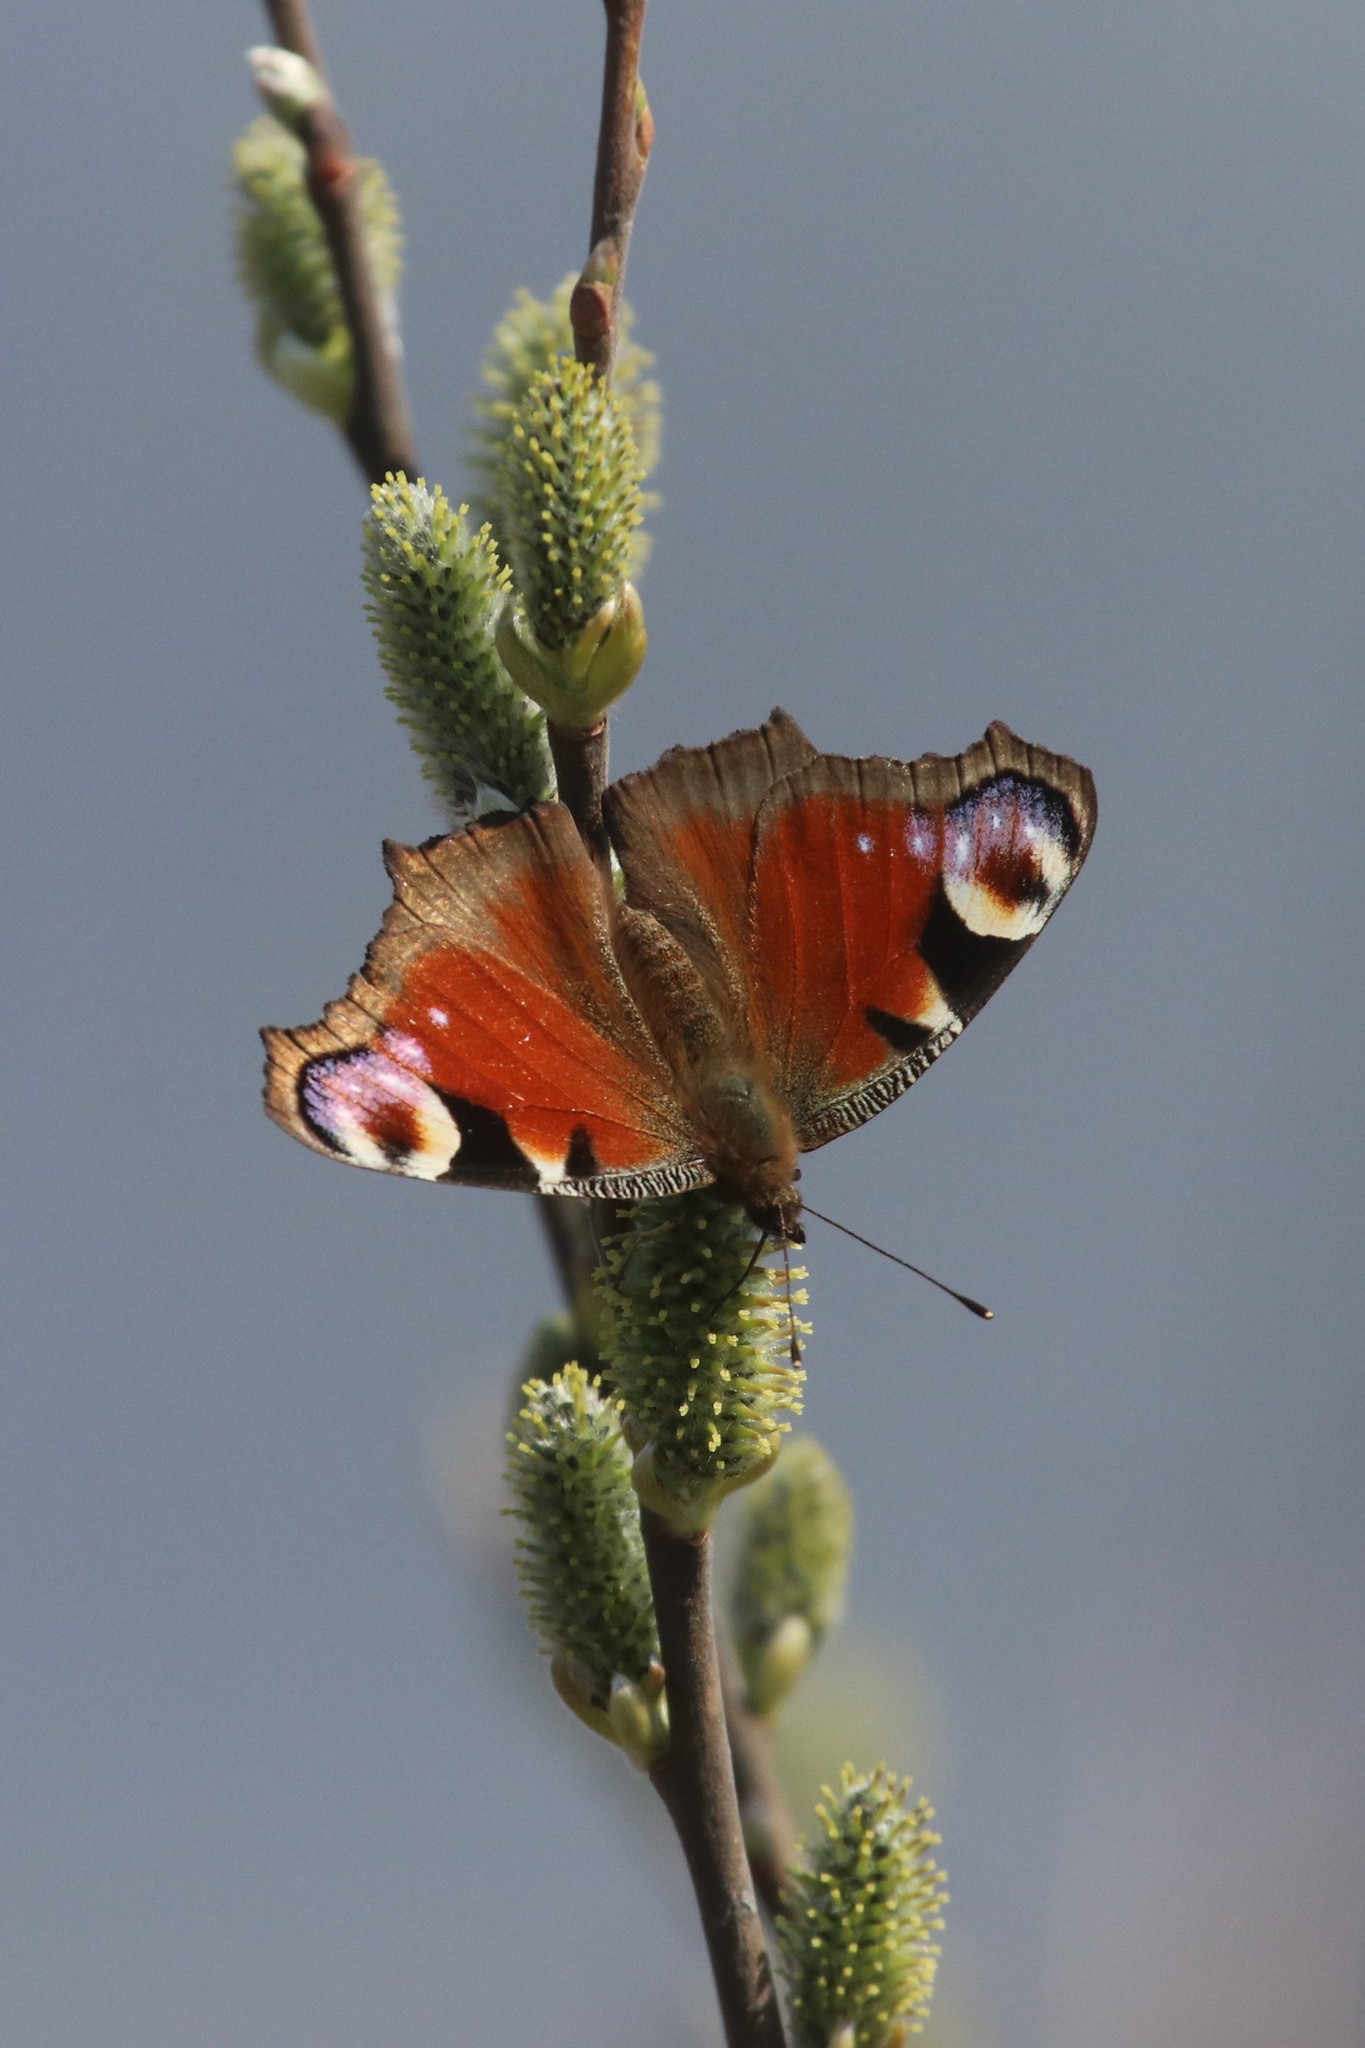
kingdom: Animalia
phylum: Arthropoda
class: Insecta
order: Lepidoptera
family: Nymphalidae
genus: Aglais
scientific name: Aglais io
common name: Peacock
